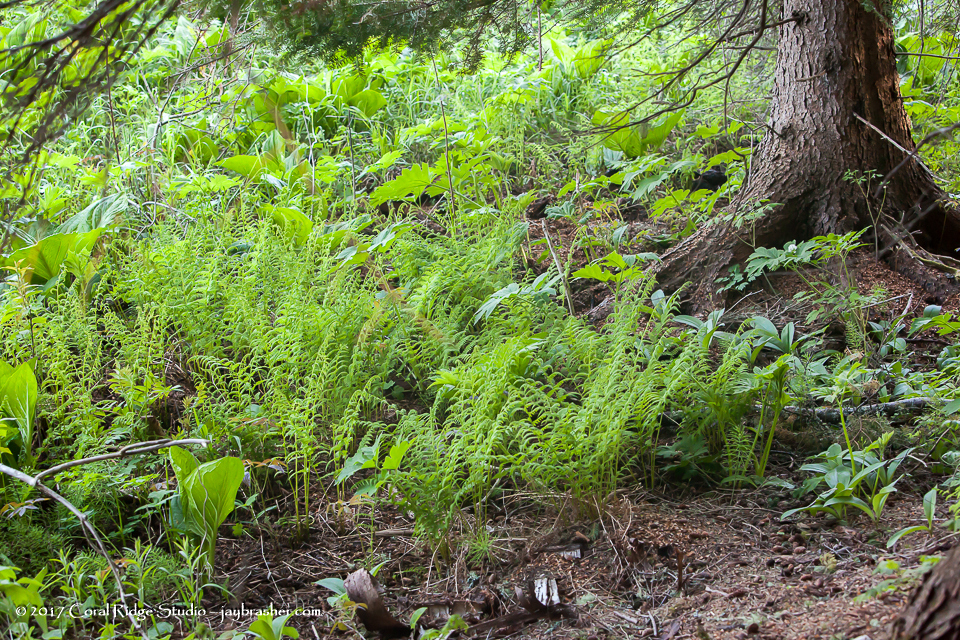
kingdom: Plantae
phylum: Tracheophyta
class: Polypodiopsida
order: Osmundales
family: Osmundaceae
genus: Claytosmunda
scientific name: Claytosmunda claytoniana
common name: Clayton's fern
